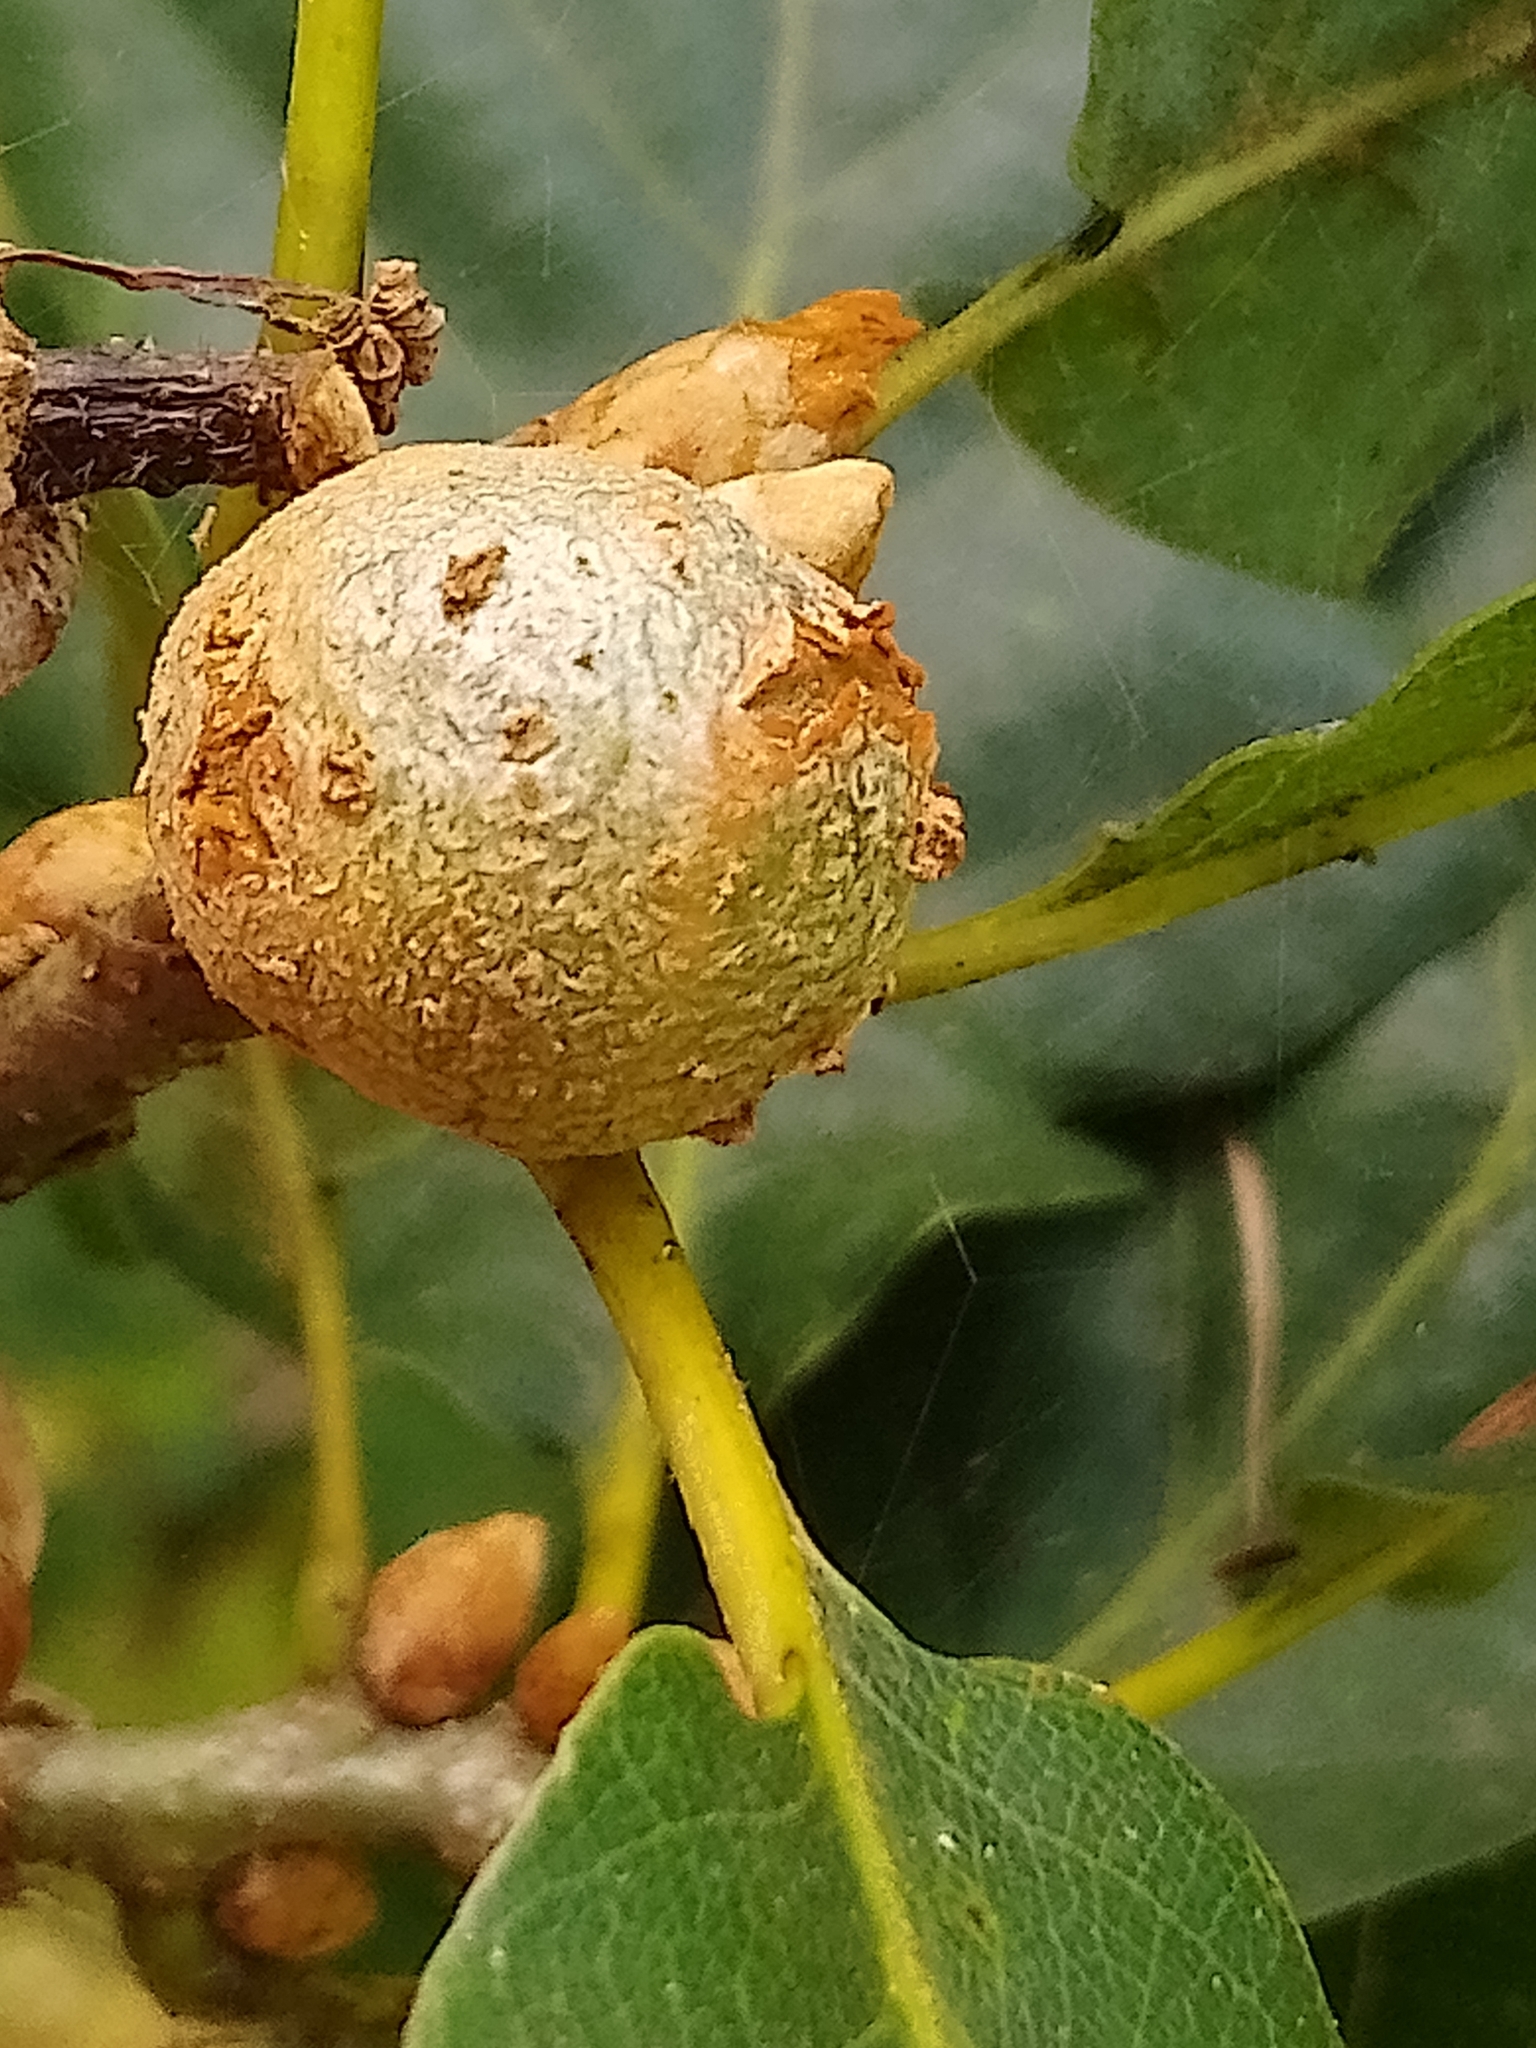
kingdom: Animalia
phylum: Arthropoda
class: Insecta
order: Hymenoptera
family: Cynipidae
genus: Andricus
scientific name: Andricus lignicolus
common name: Cola-nut gall
